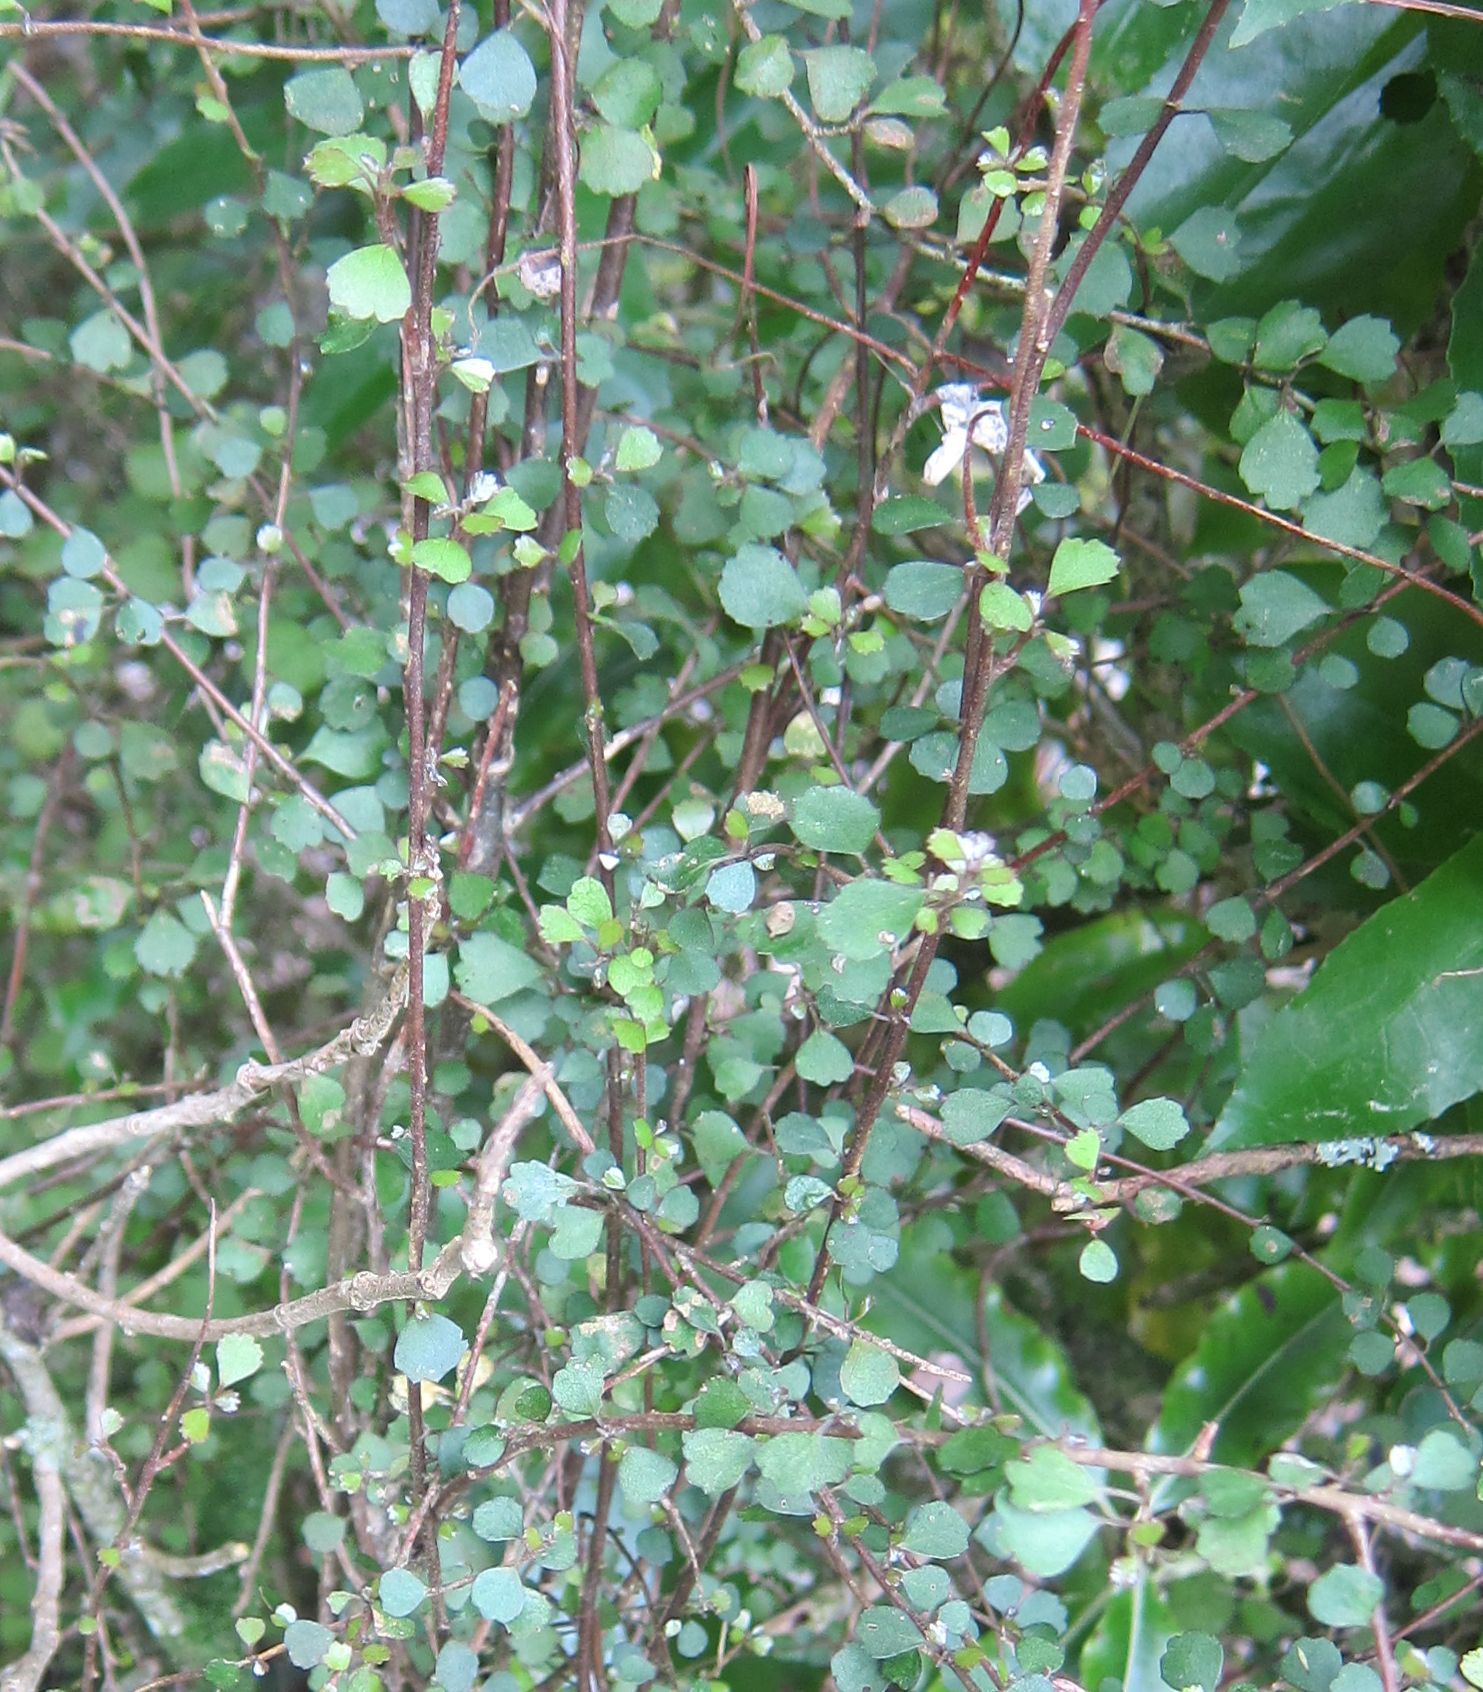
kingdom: Plantae
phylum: Tracheophyta
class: Magnoliopsida
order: Malpighiales
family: Violaceae
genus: Melicytus
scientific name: Melicytus micranthus
